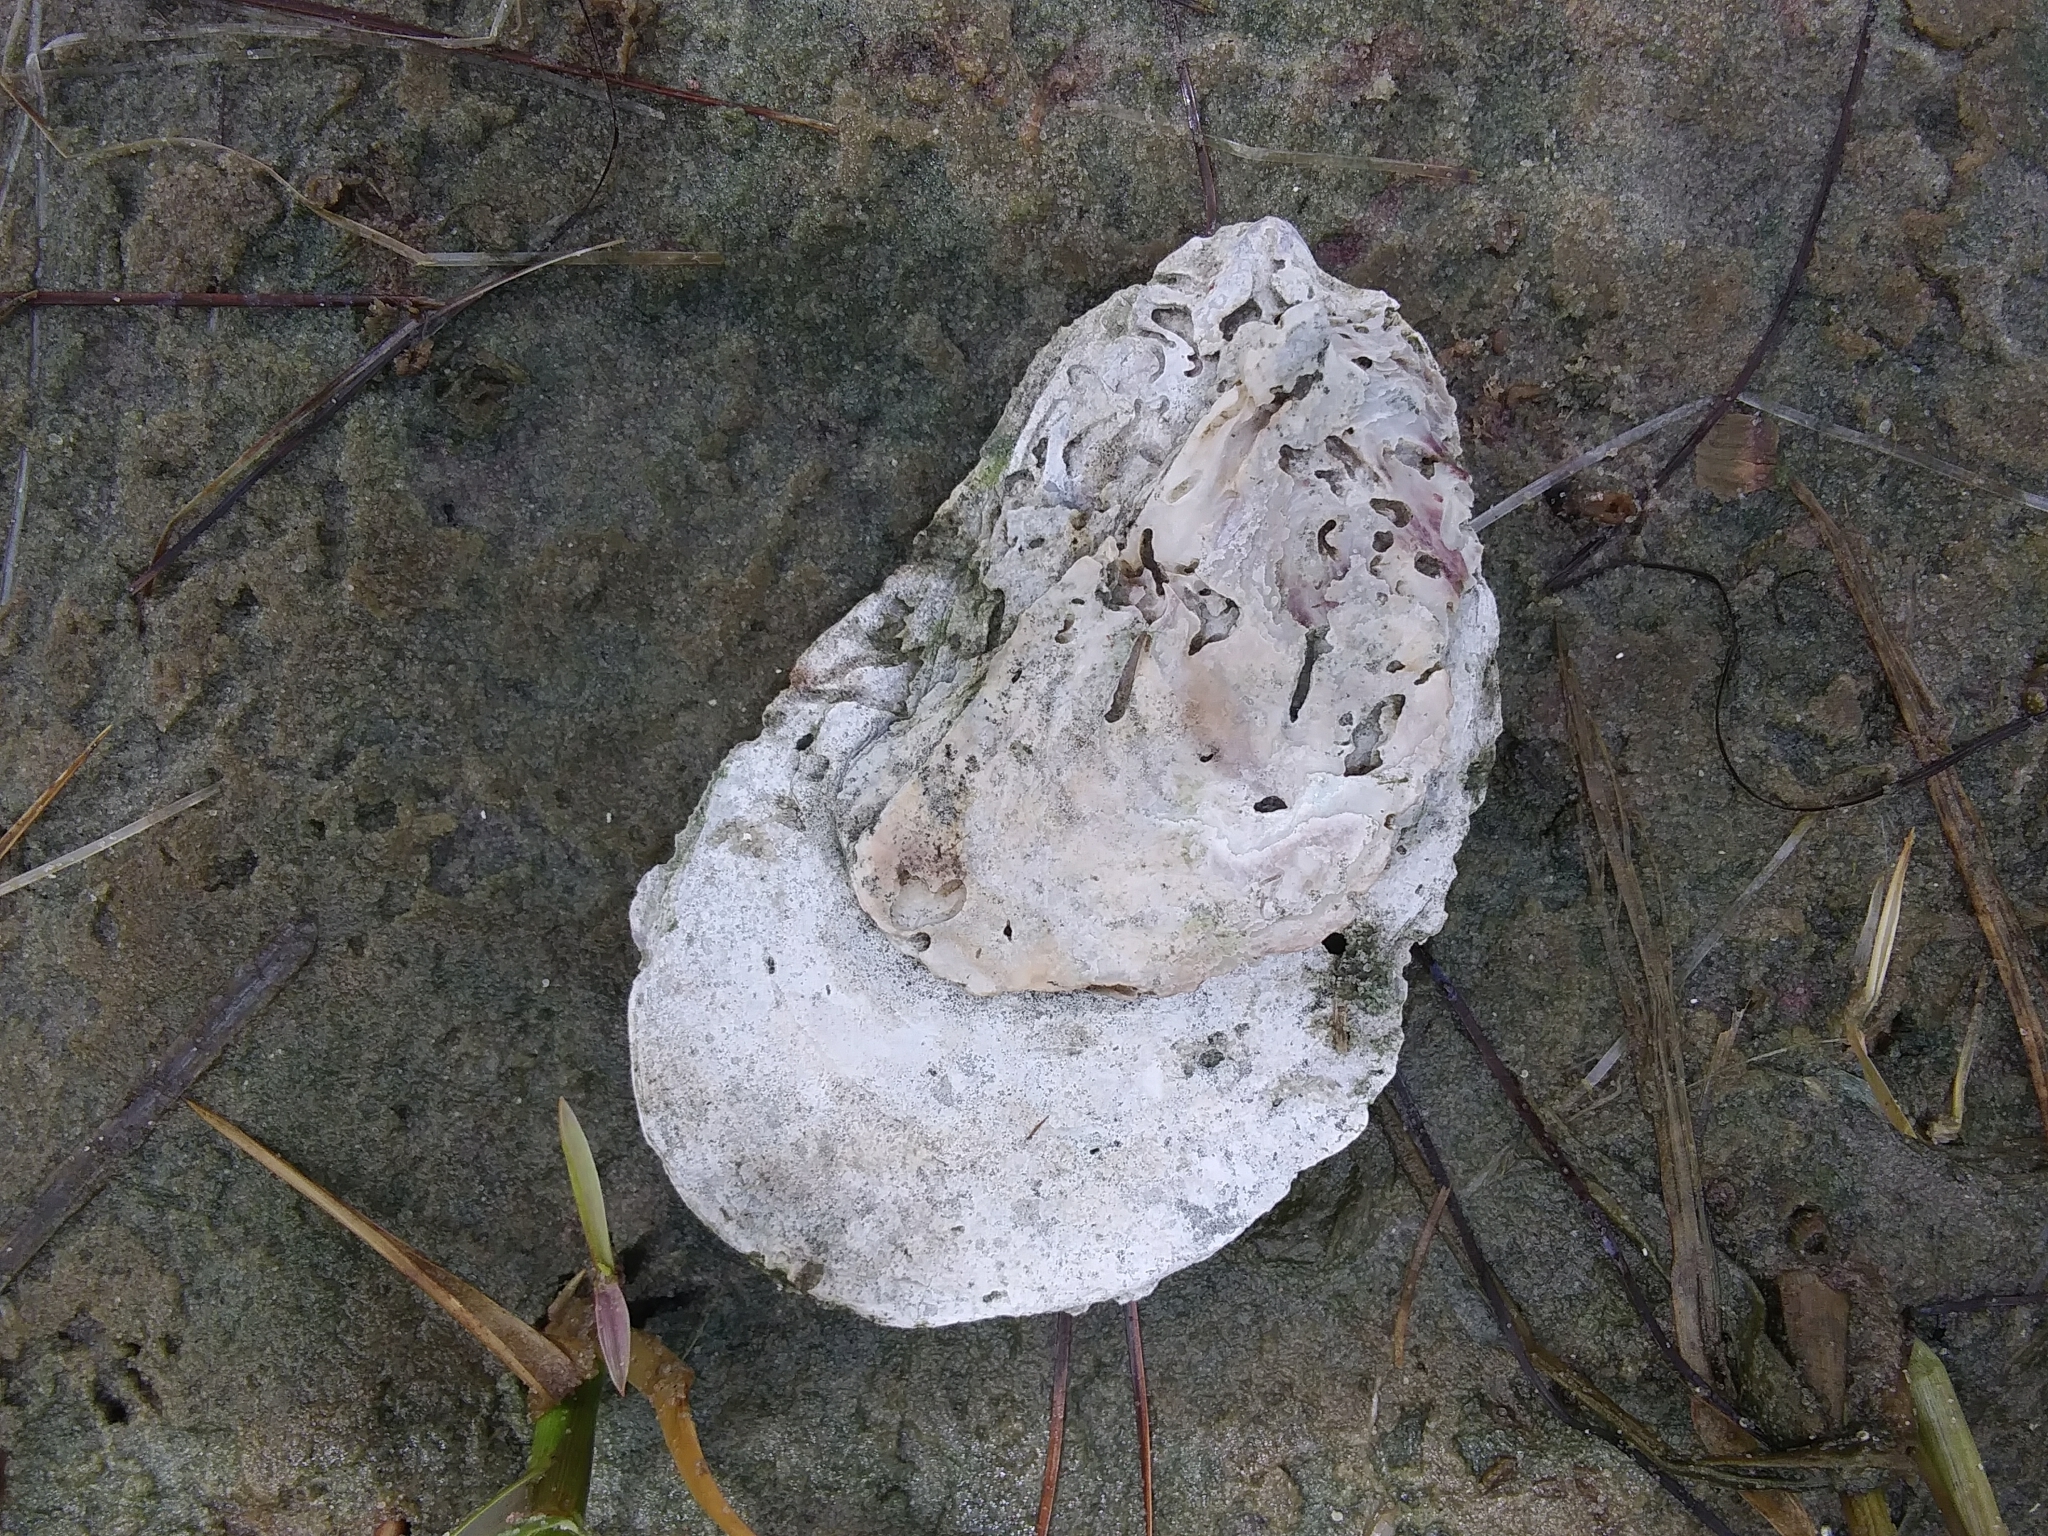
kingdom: Animalia
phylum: Mollusca
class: Bivalvia
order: Ostreida
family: Ostreidae
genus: Crassostrea
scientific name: Crassostrea virginica
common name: American oyster
